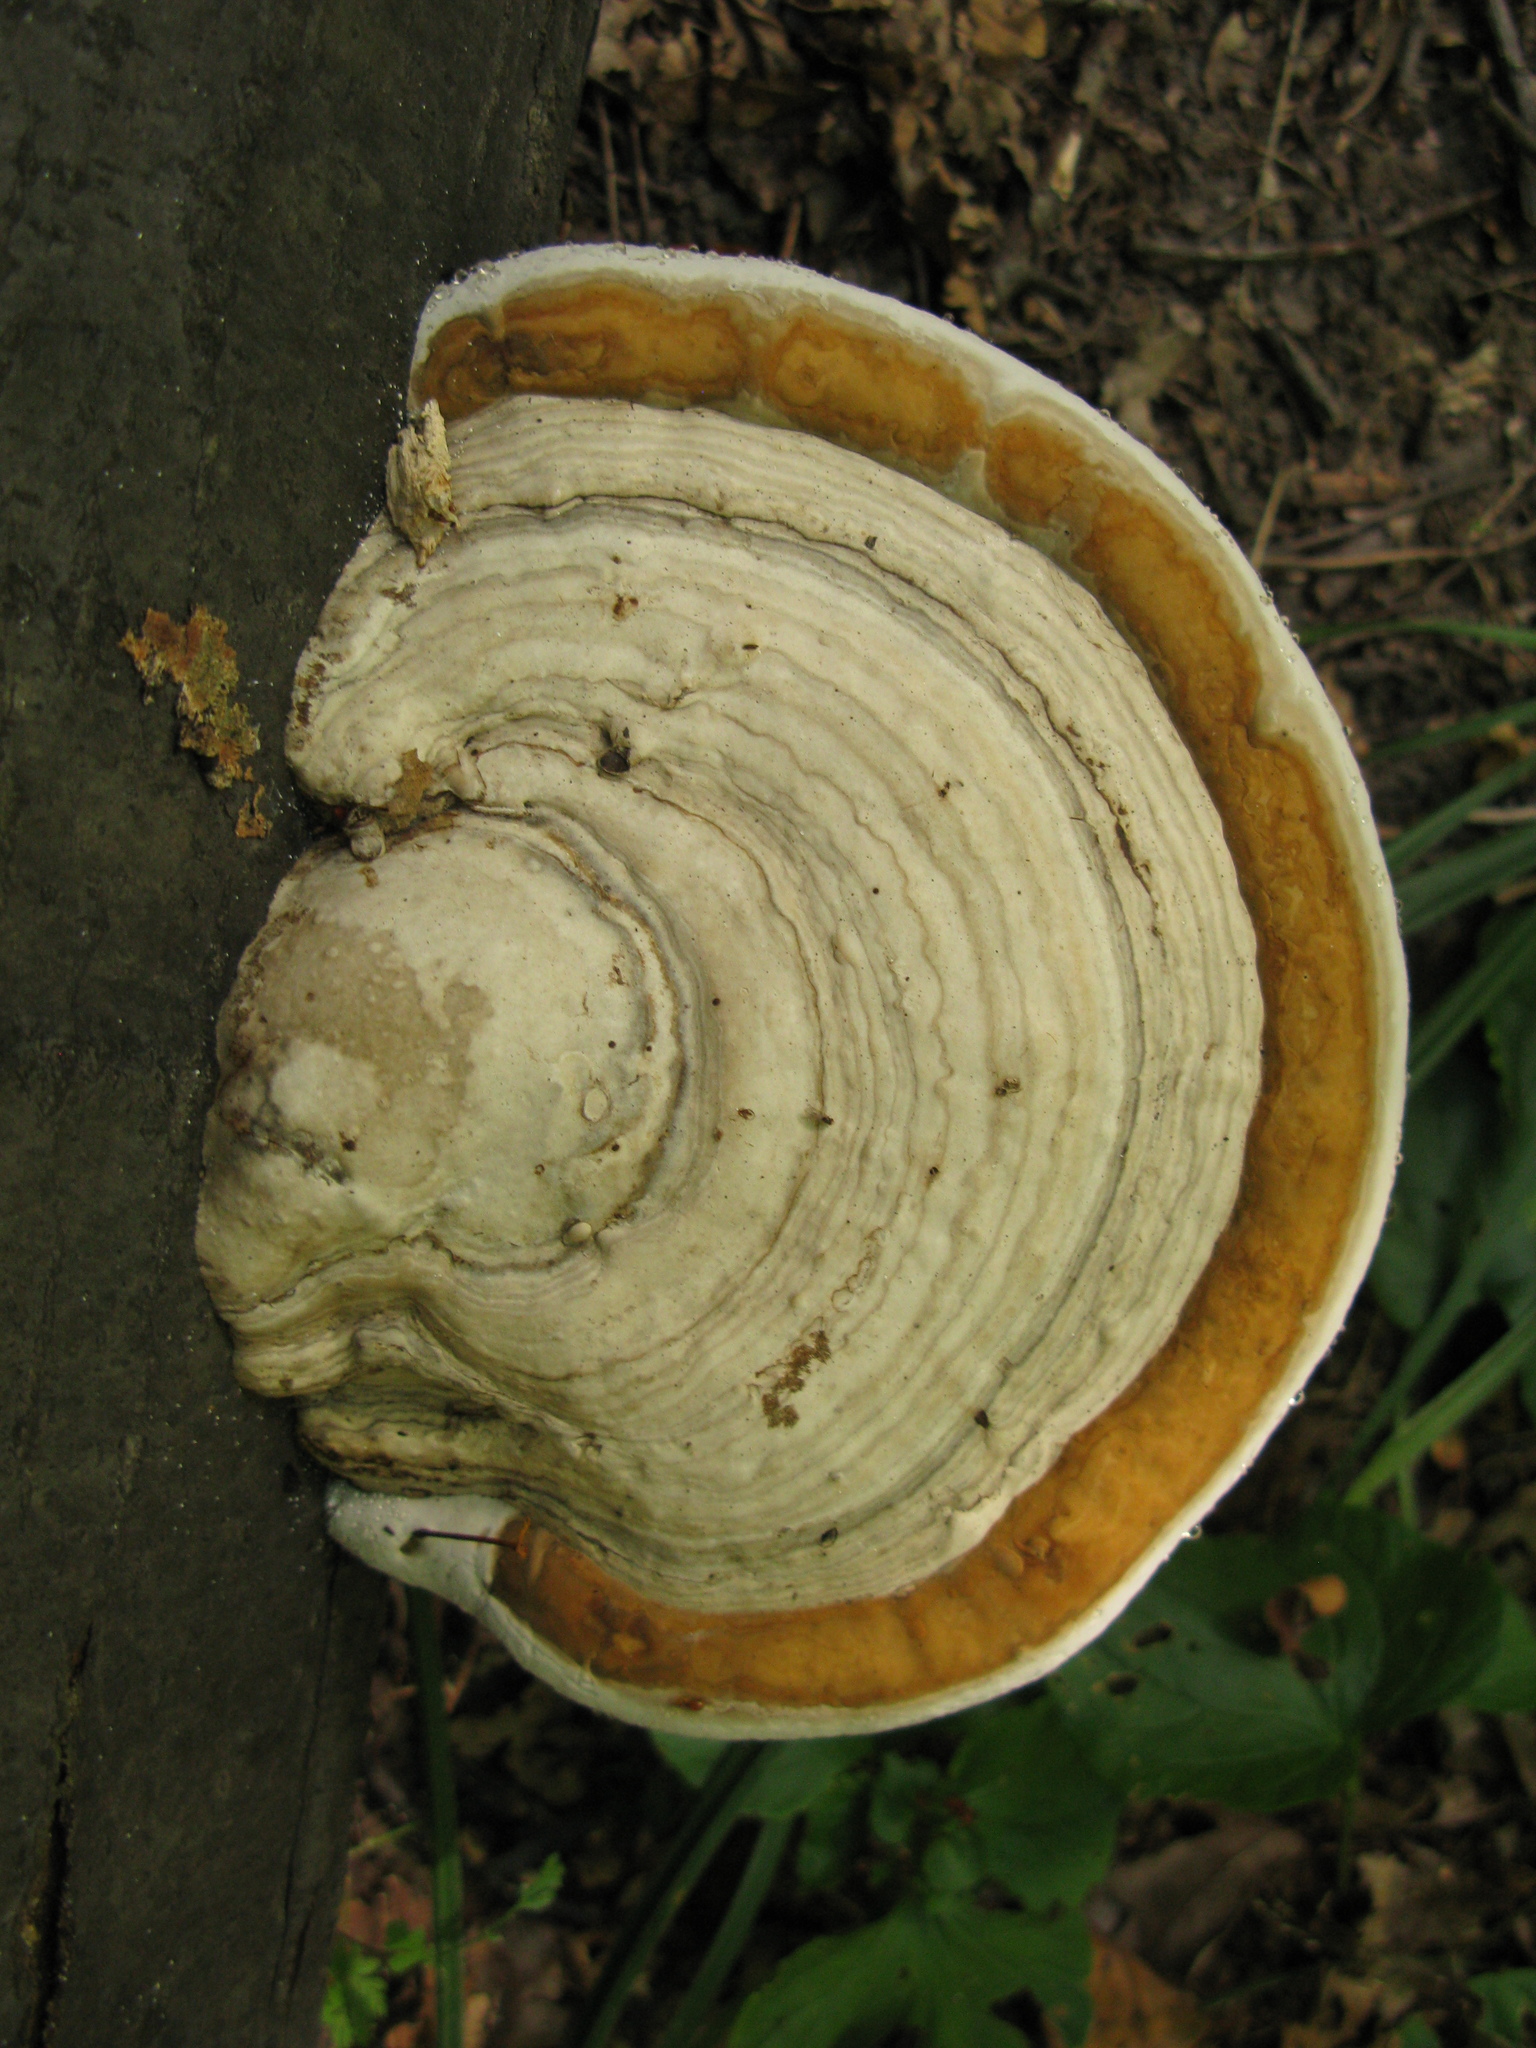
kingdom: Fungi
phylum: Basidiomycota
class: Agaricomycetes
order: Polyporales
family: Polyporaceae
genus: Fomes
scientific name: Fomes fomentarius
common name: Hoof fungus
